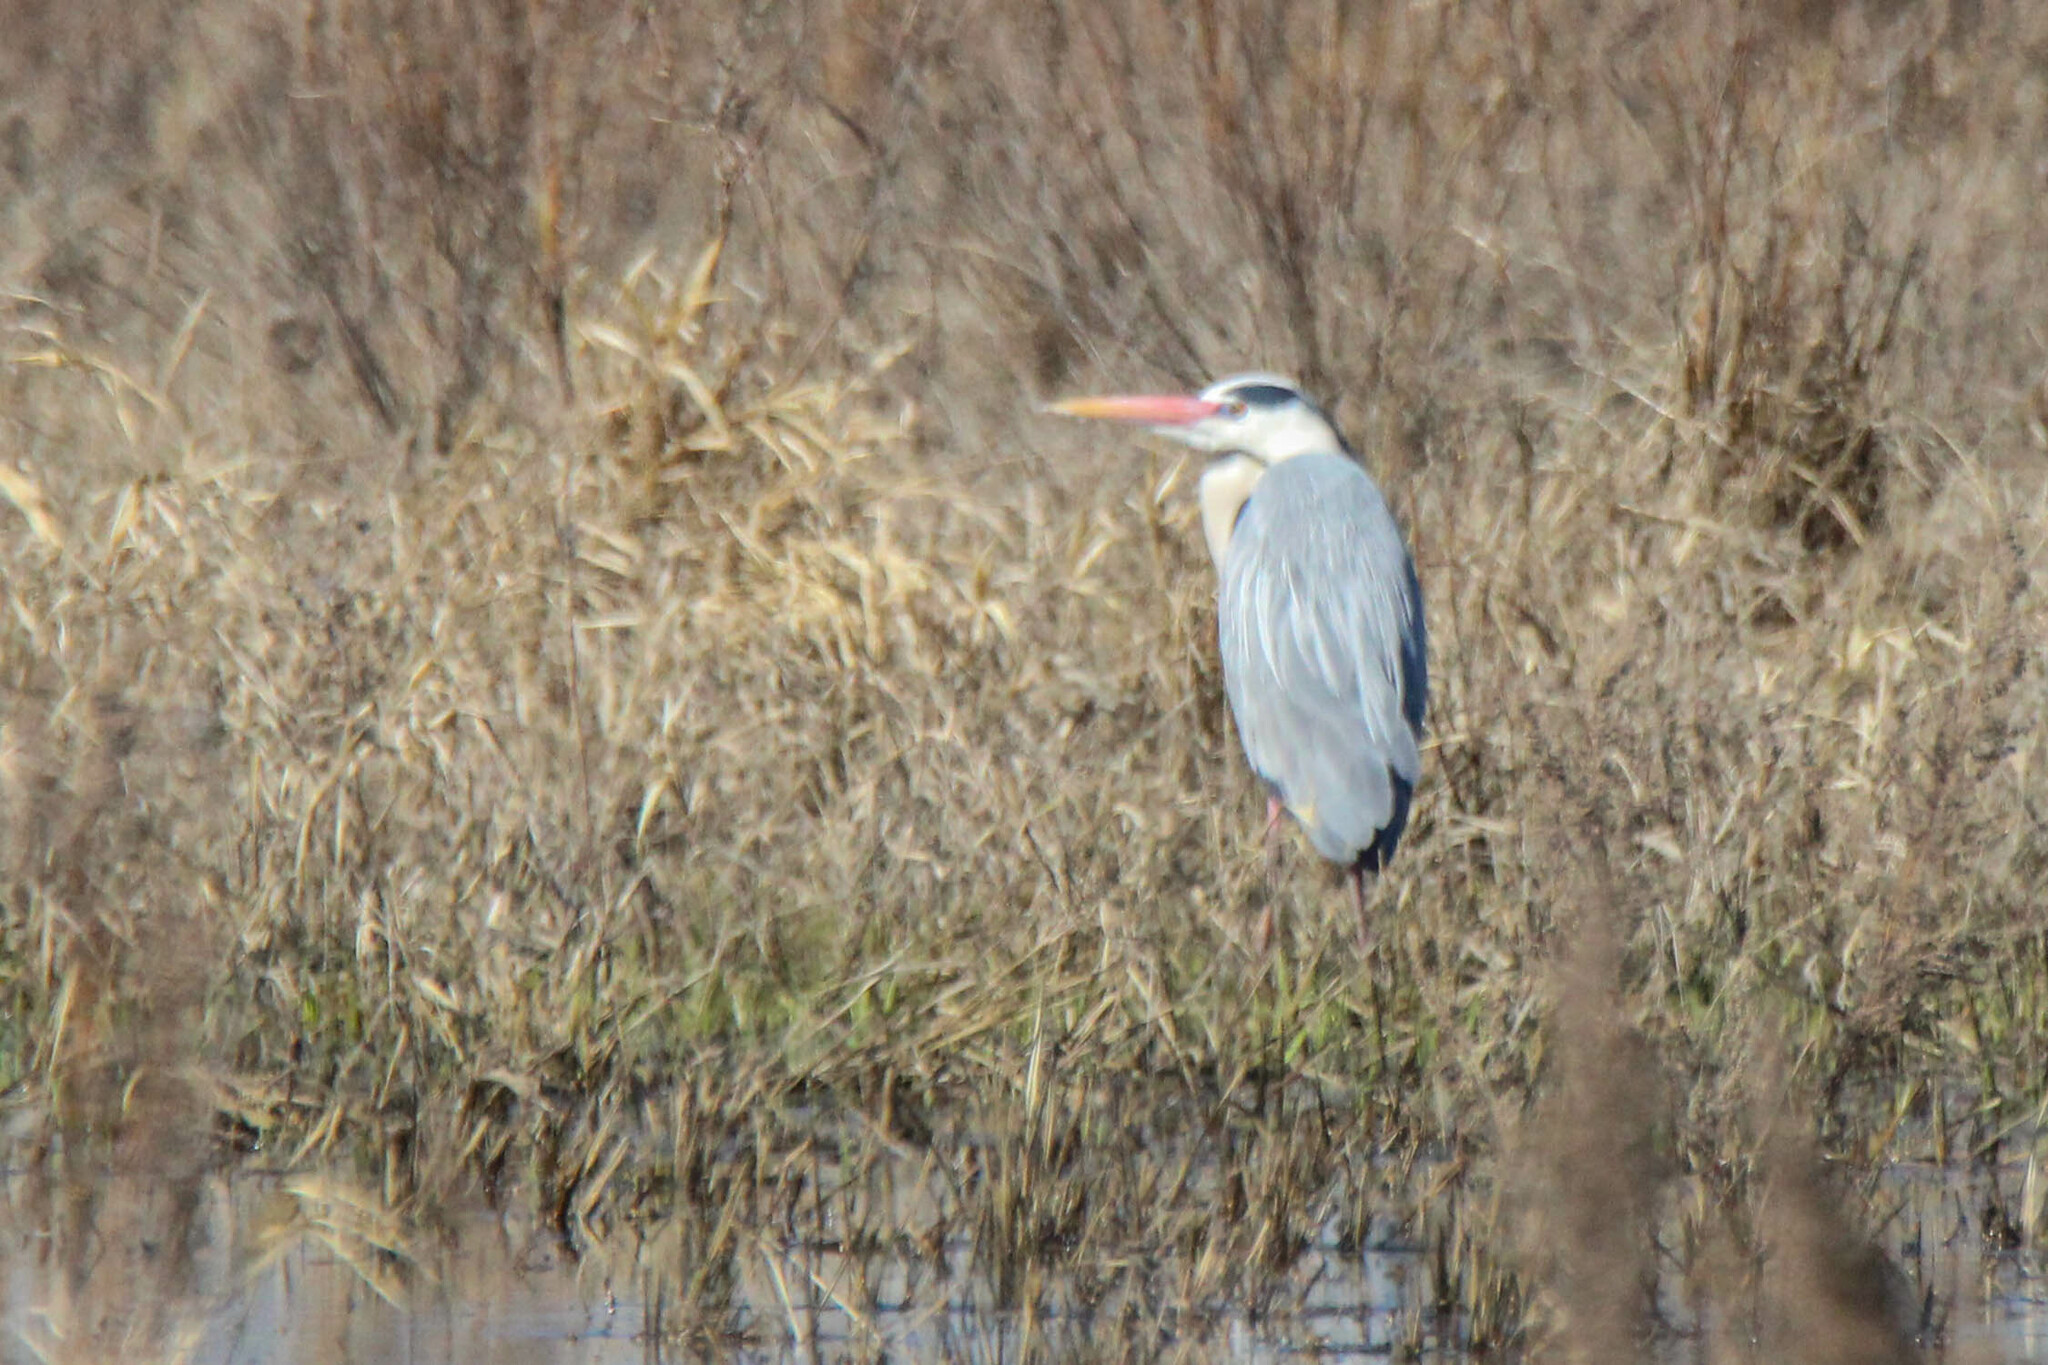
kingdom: Animalia
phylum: Chordata
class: Aves
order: Pelecaniformes
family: Ardeidae
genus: Ardea
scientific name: Ardea cinerea
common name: Grey heron
